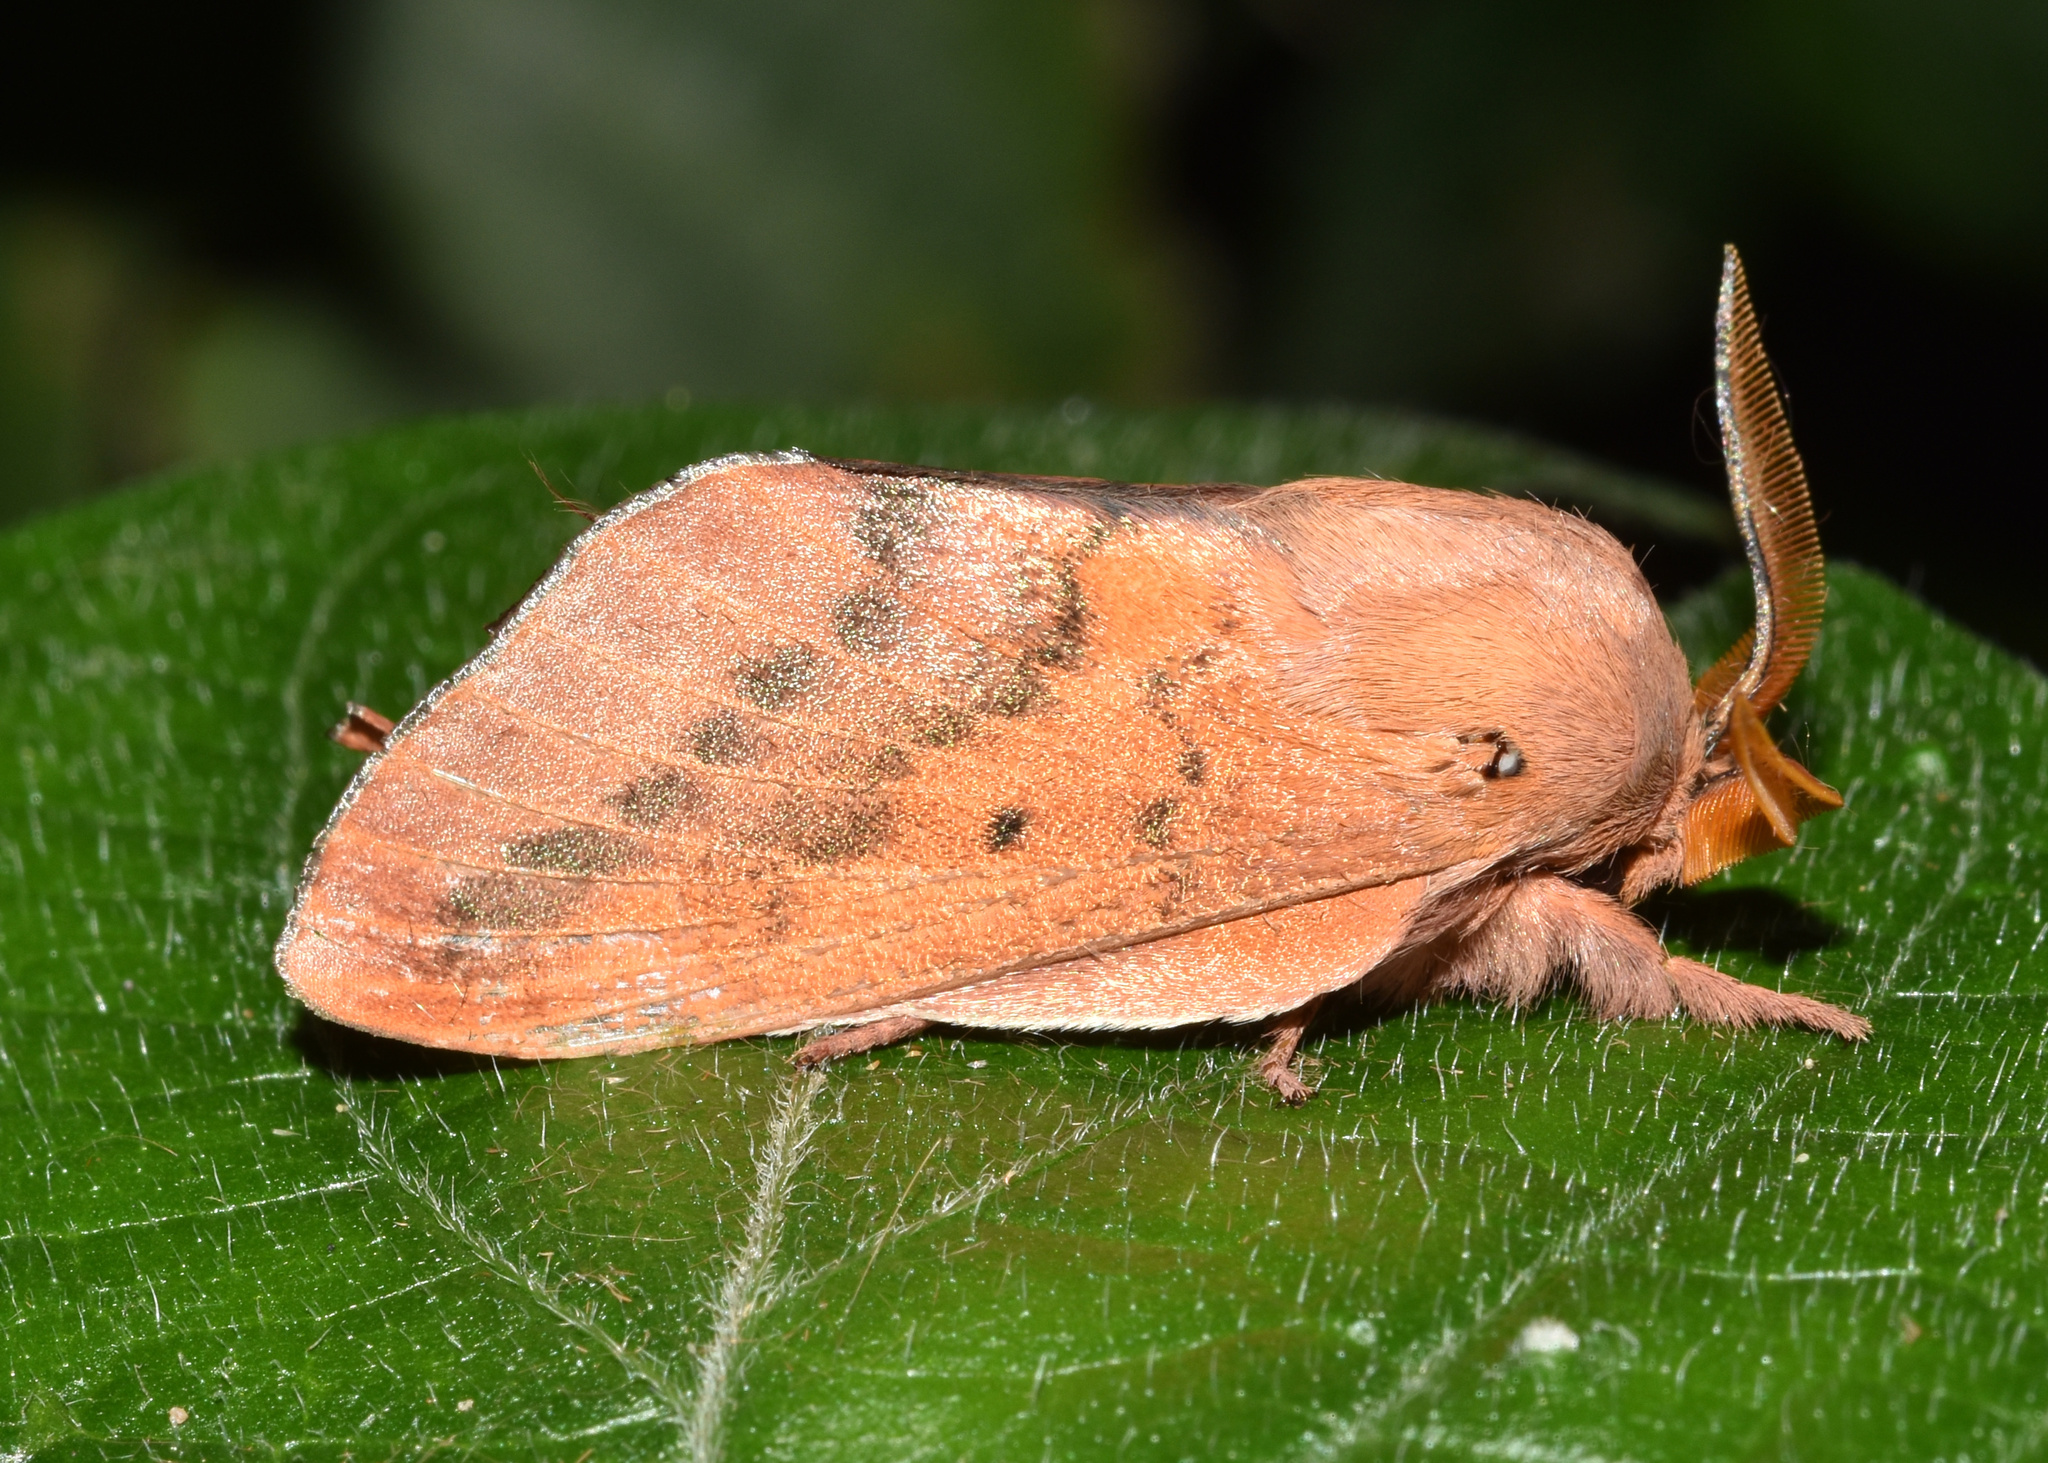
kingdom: Animalia
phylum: Arthropoda
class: Insecta
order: Lepidoptera
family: Lasiocampidae
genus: Henometa
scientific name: Henometa clarki
